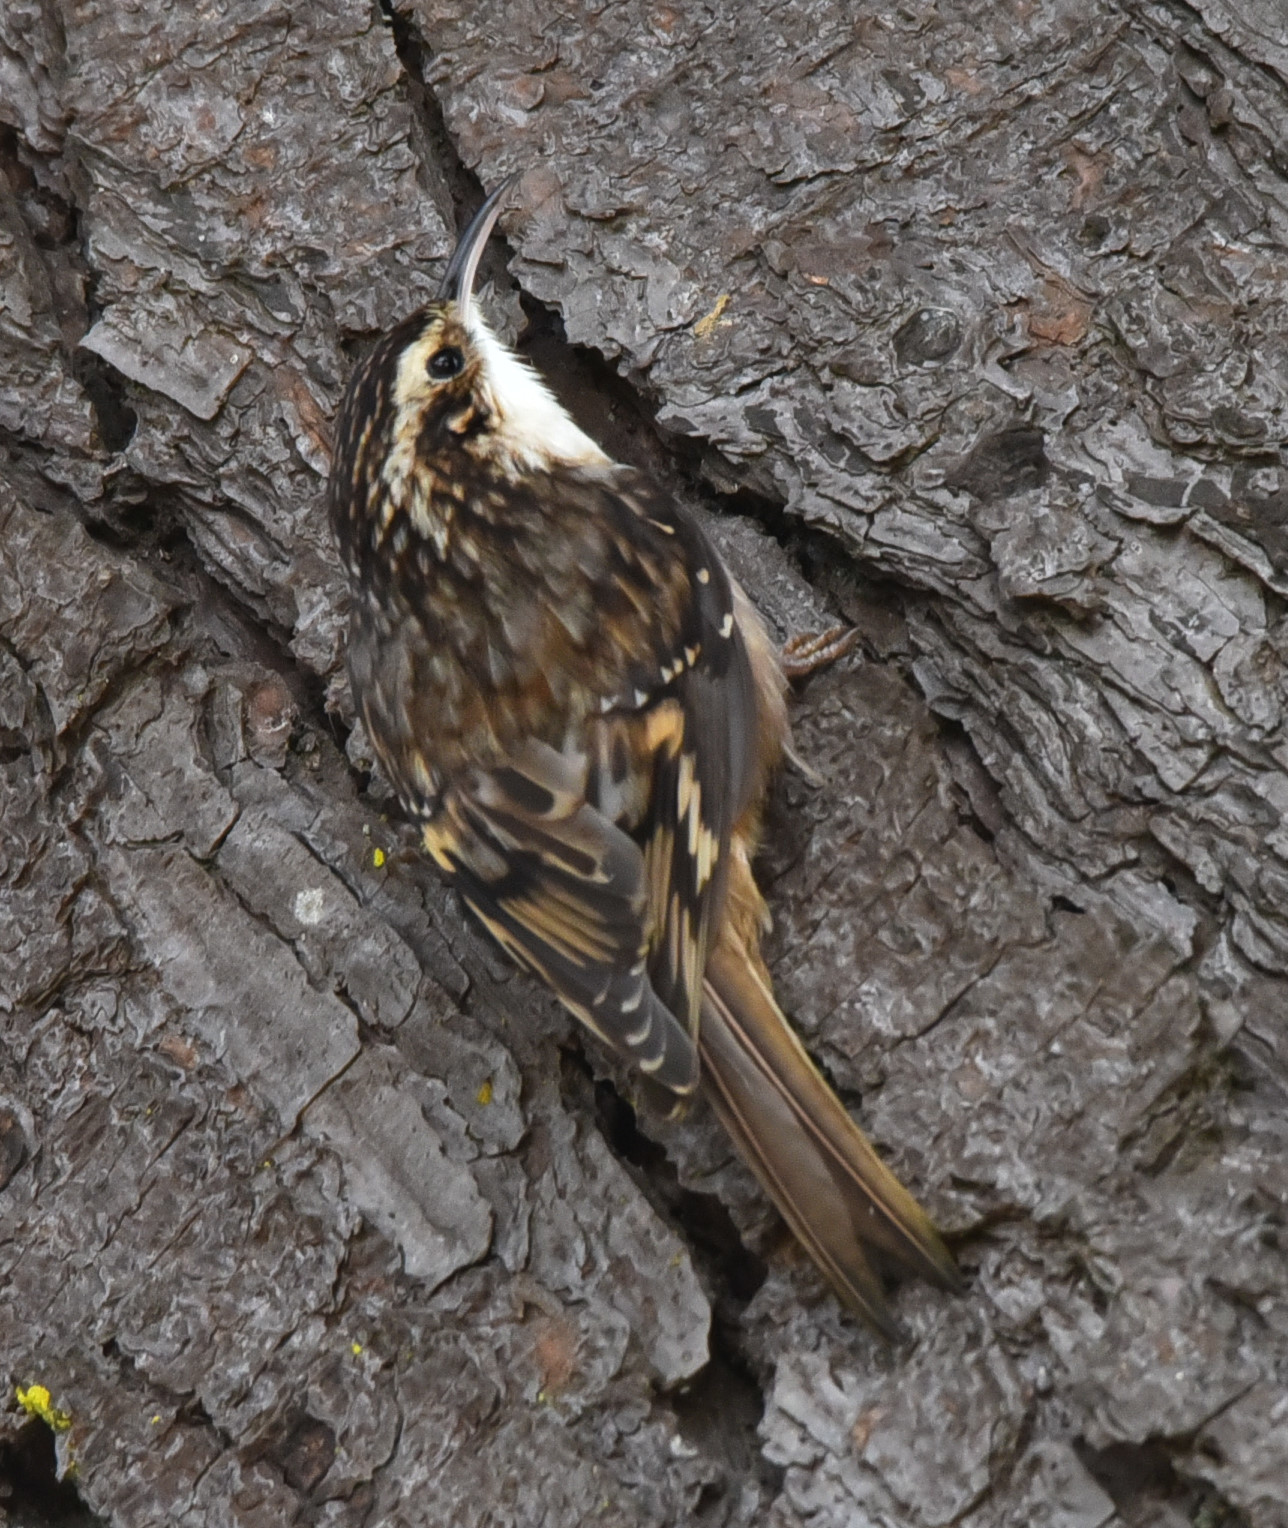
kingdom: Animalia
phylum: Chordata
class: Aves
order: Passeriformes
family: Certhiidae
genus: Certhia
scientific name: Certhia americana
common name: Brown creeper
